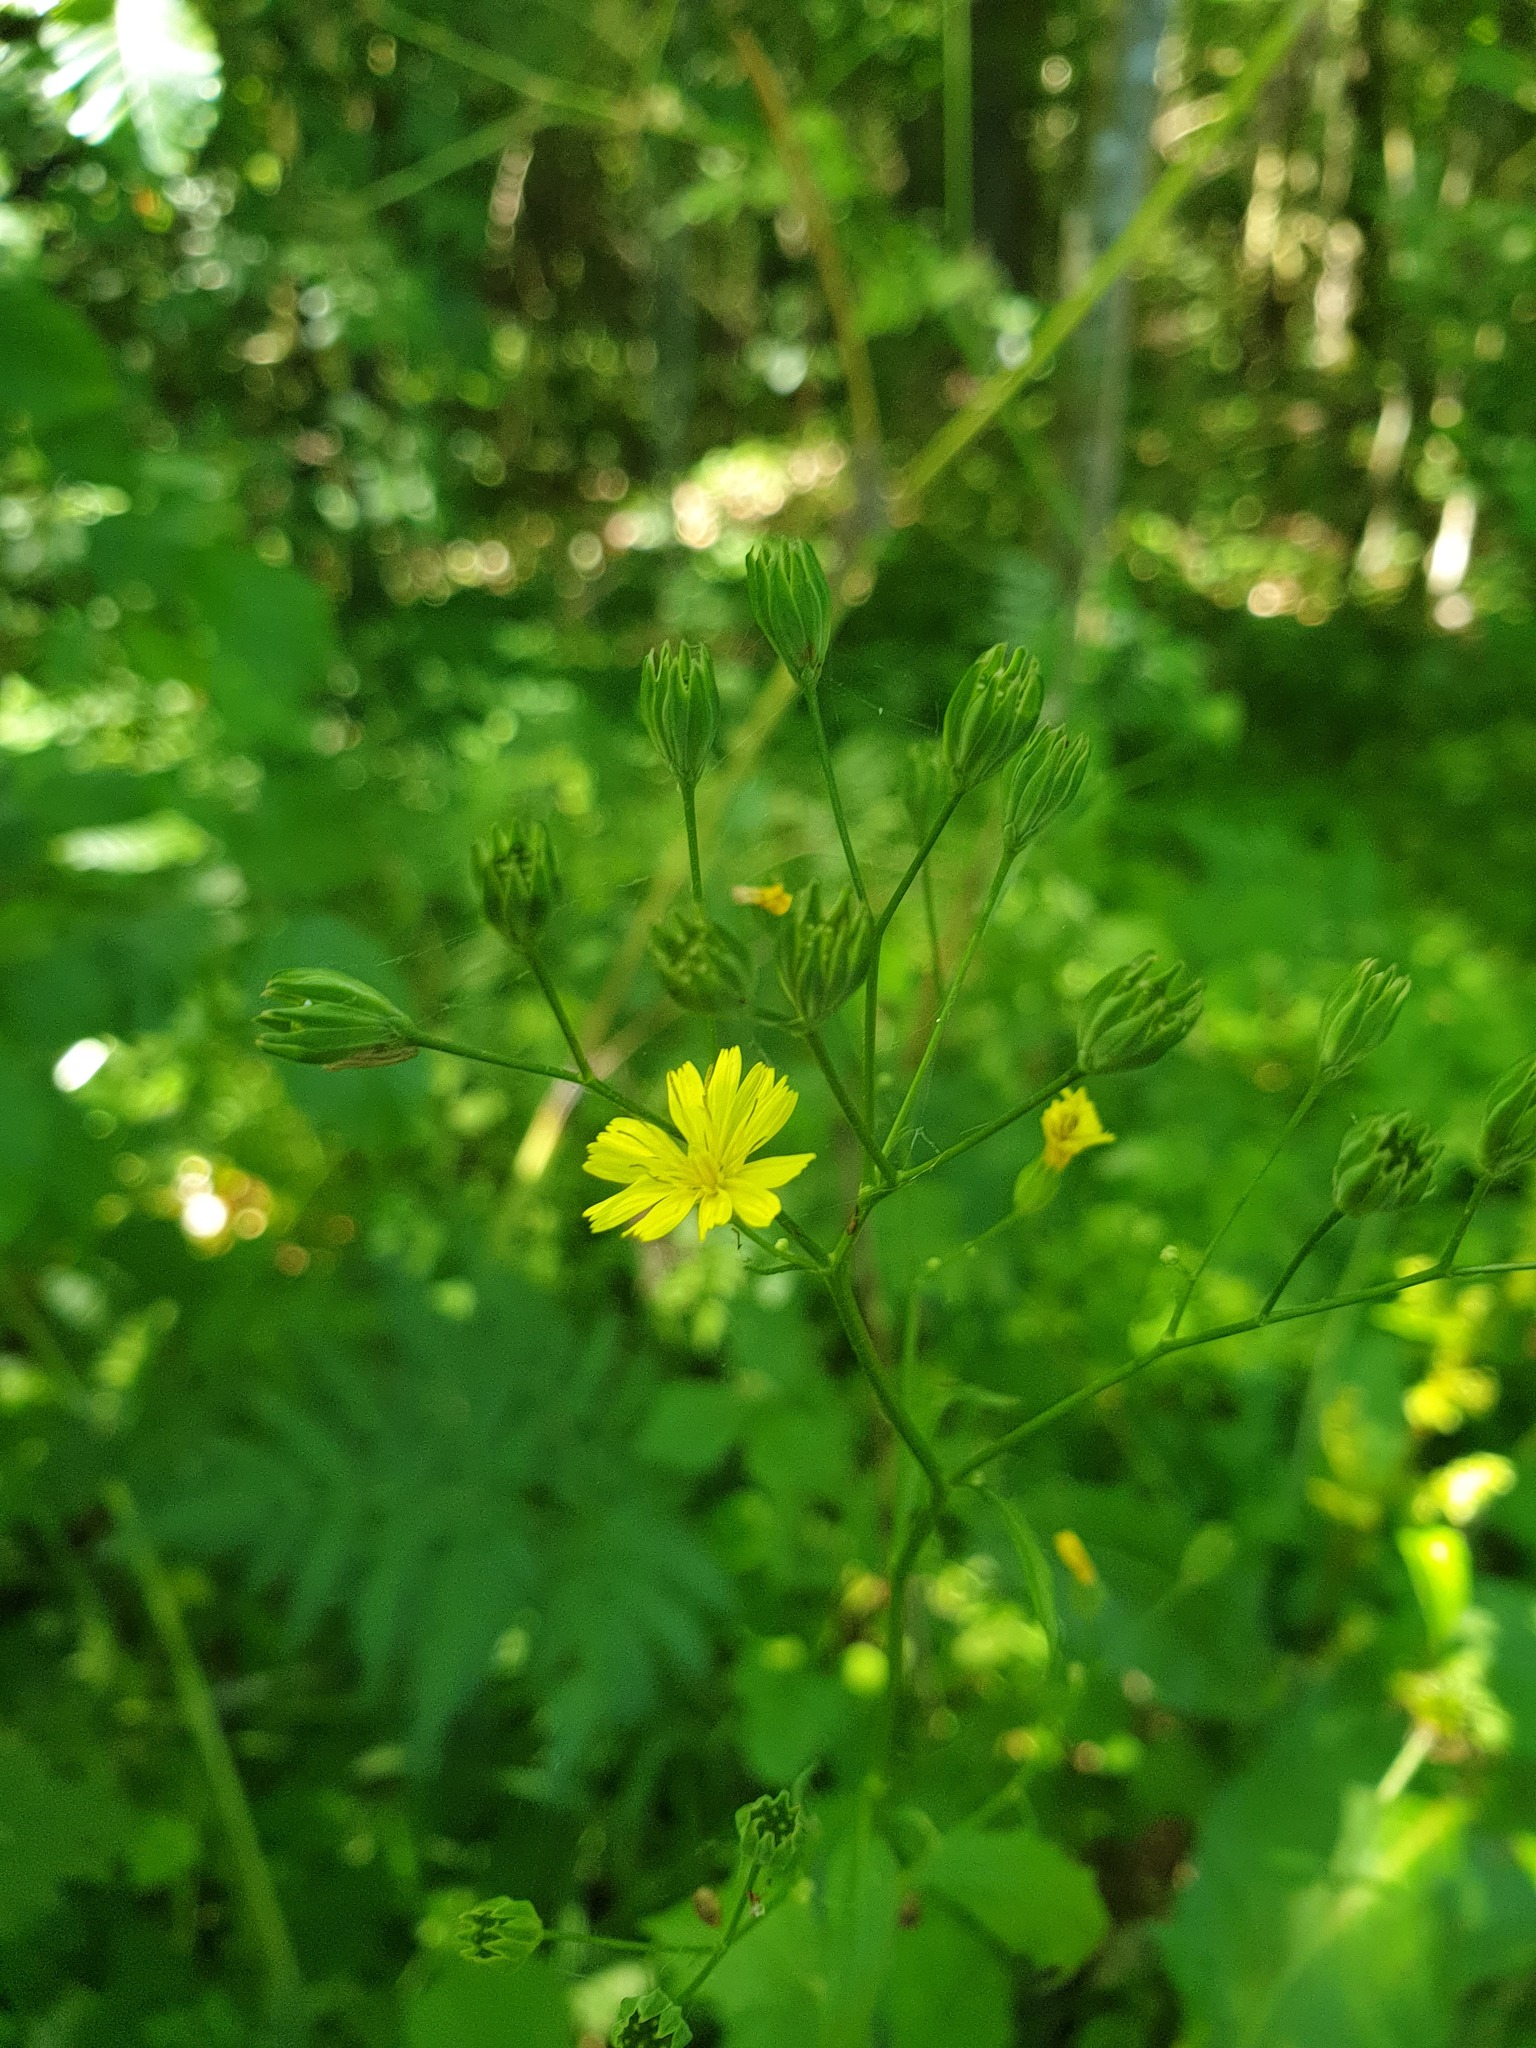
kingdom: Plantae
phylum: Tracheophyta
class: Magnoliopsida
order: Asterales
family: Asteraceae
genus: Lapsana
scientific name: Lapsana communis
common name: Nipplewort
